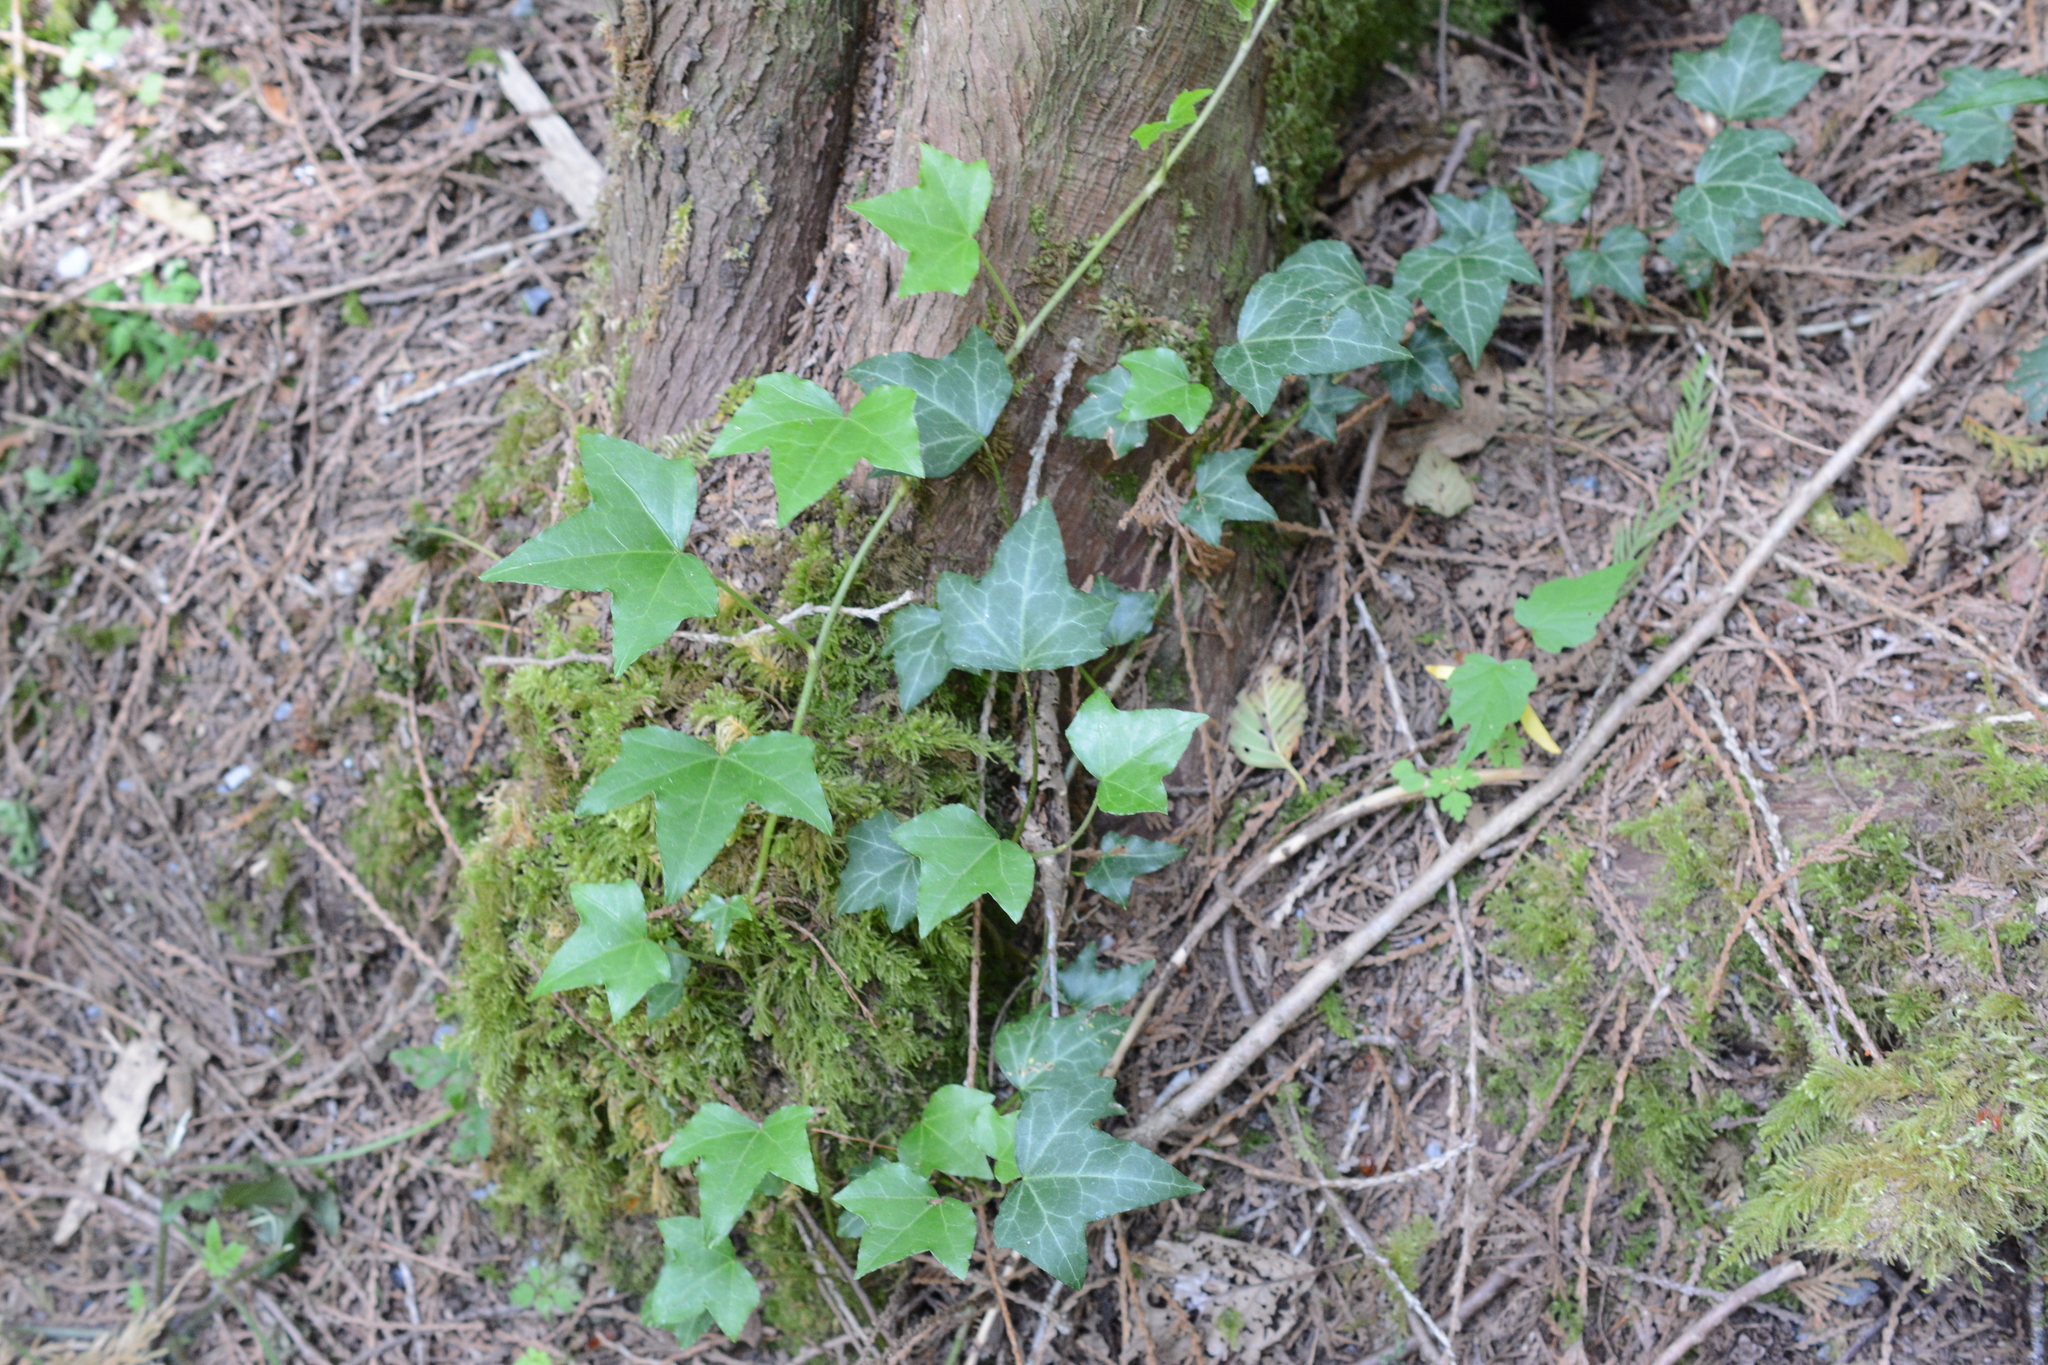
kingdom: Plantae
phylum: Tracheophyta
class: Magnoliopsida
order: Apiales
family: Araliaceae
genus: Hedera
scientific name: Hedera helix
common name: Ivy
